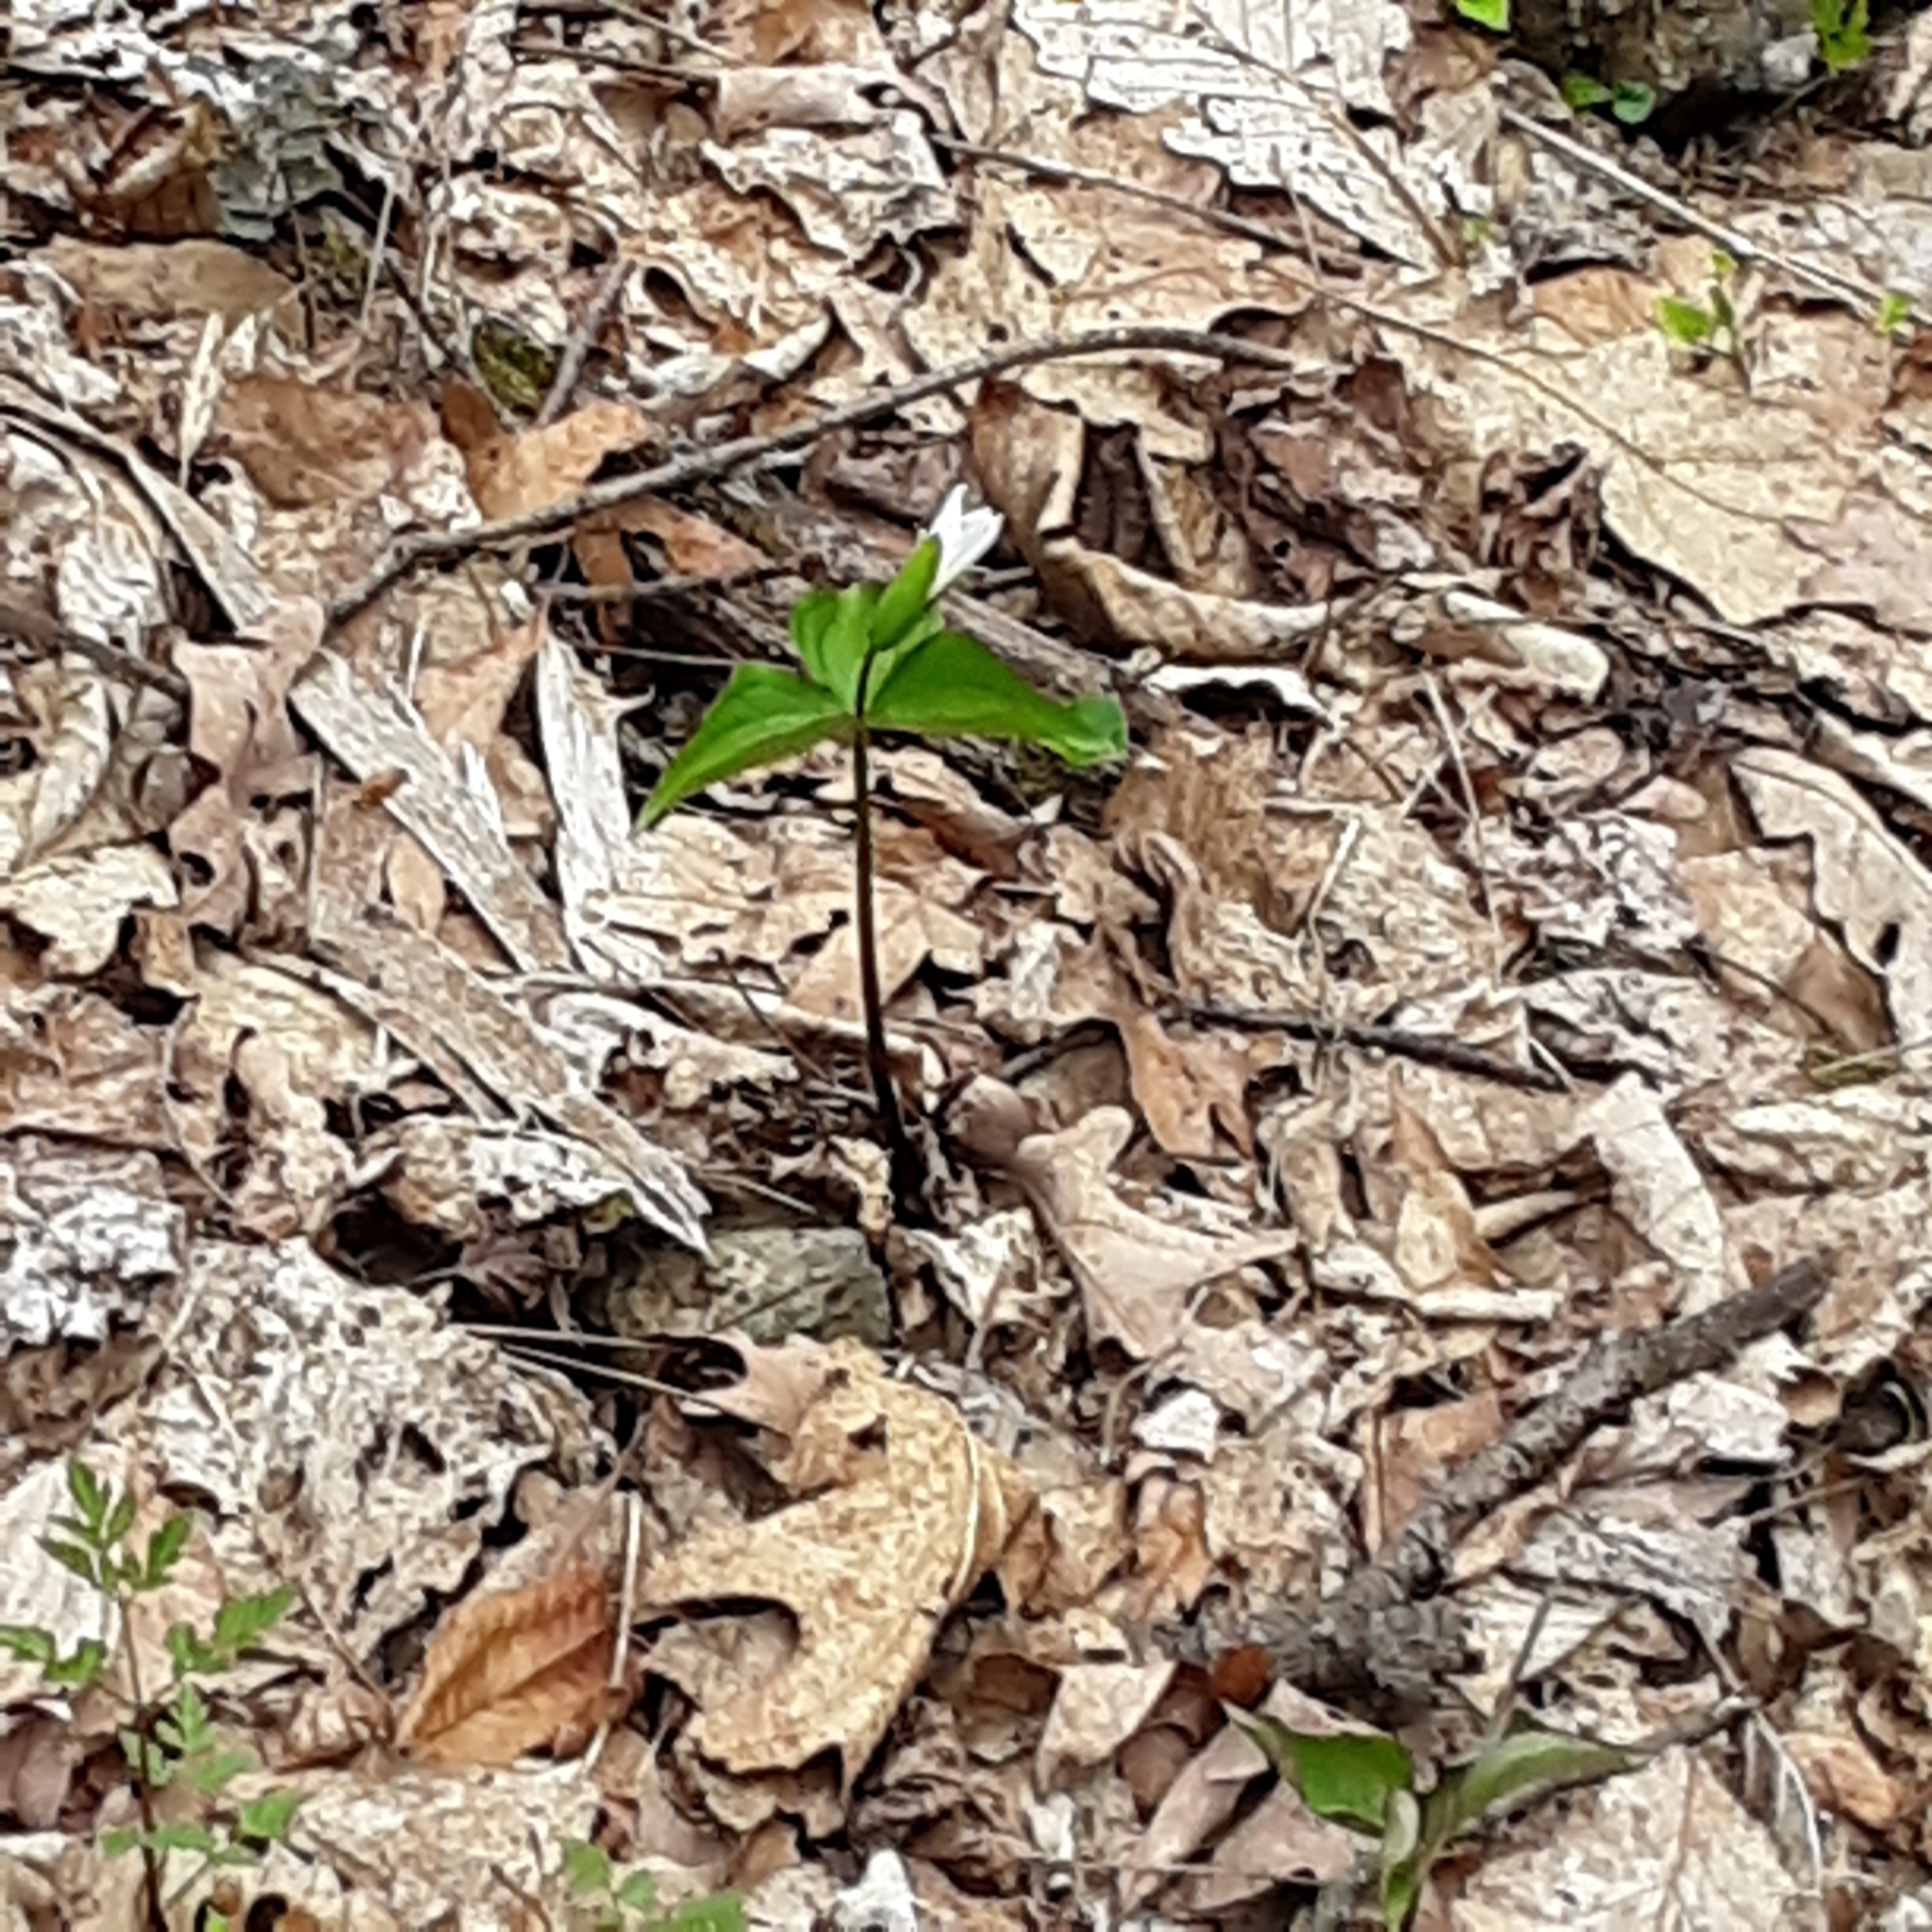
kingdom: Plantae
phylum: Tracheophyta
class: Liliopsida
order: Liliales
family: Melanthiaceae
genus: Trillium
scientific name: Trillium grandiflorum
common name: Great white trillium
